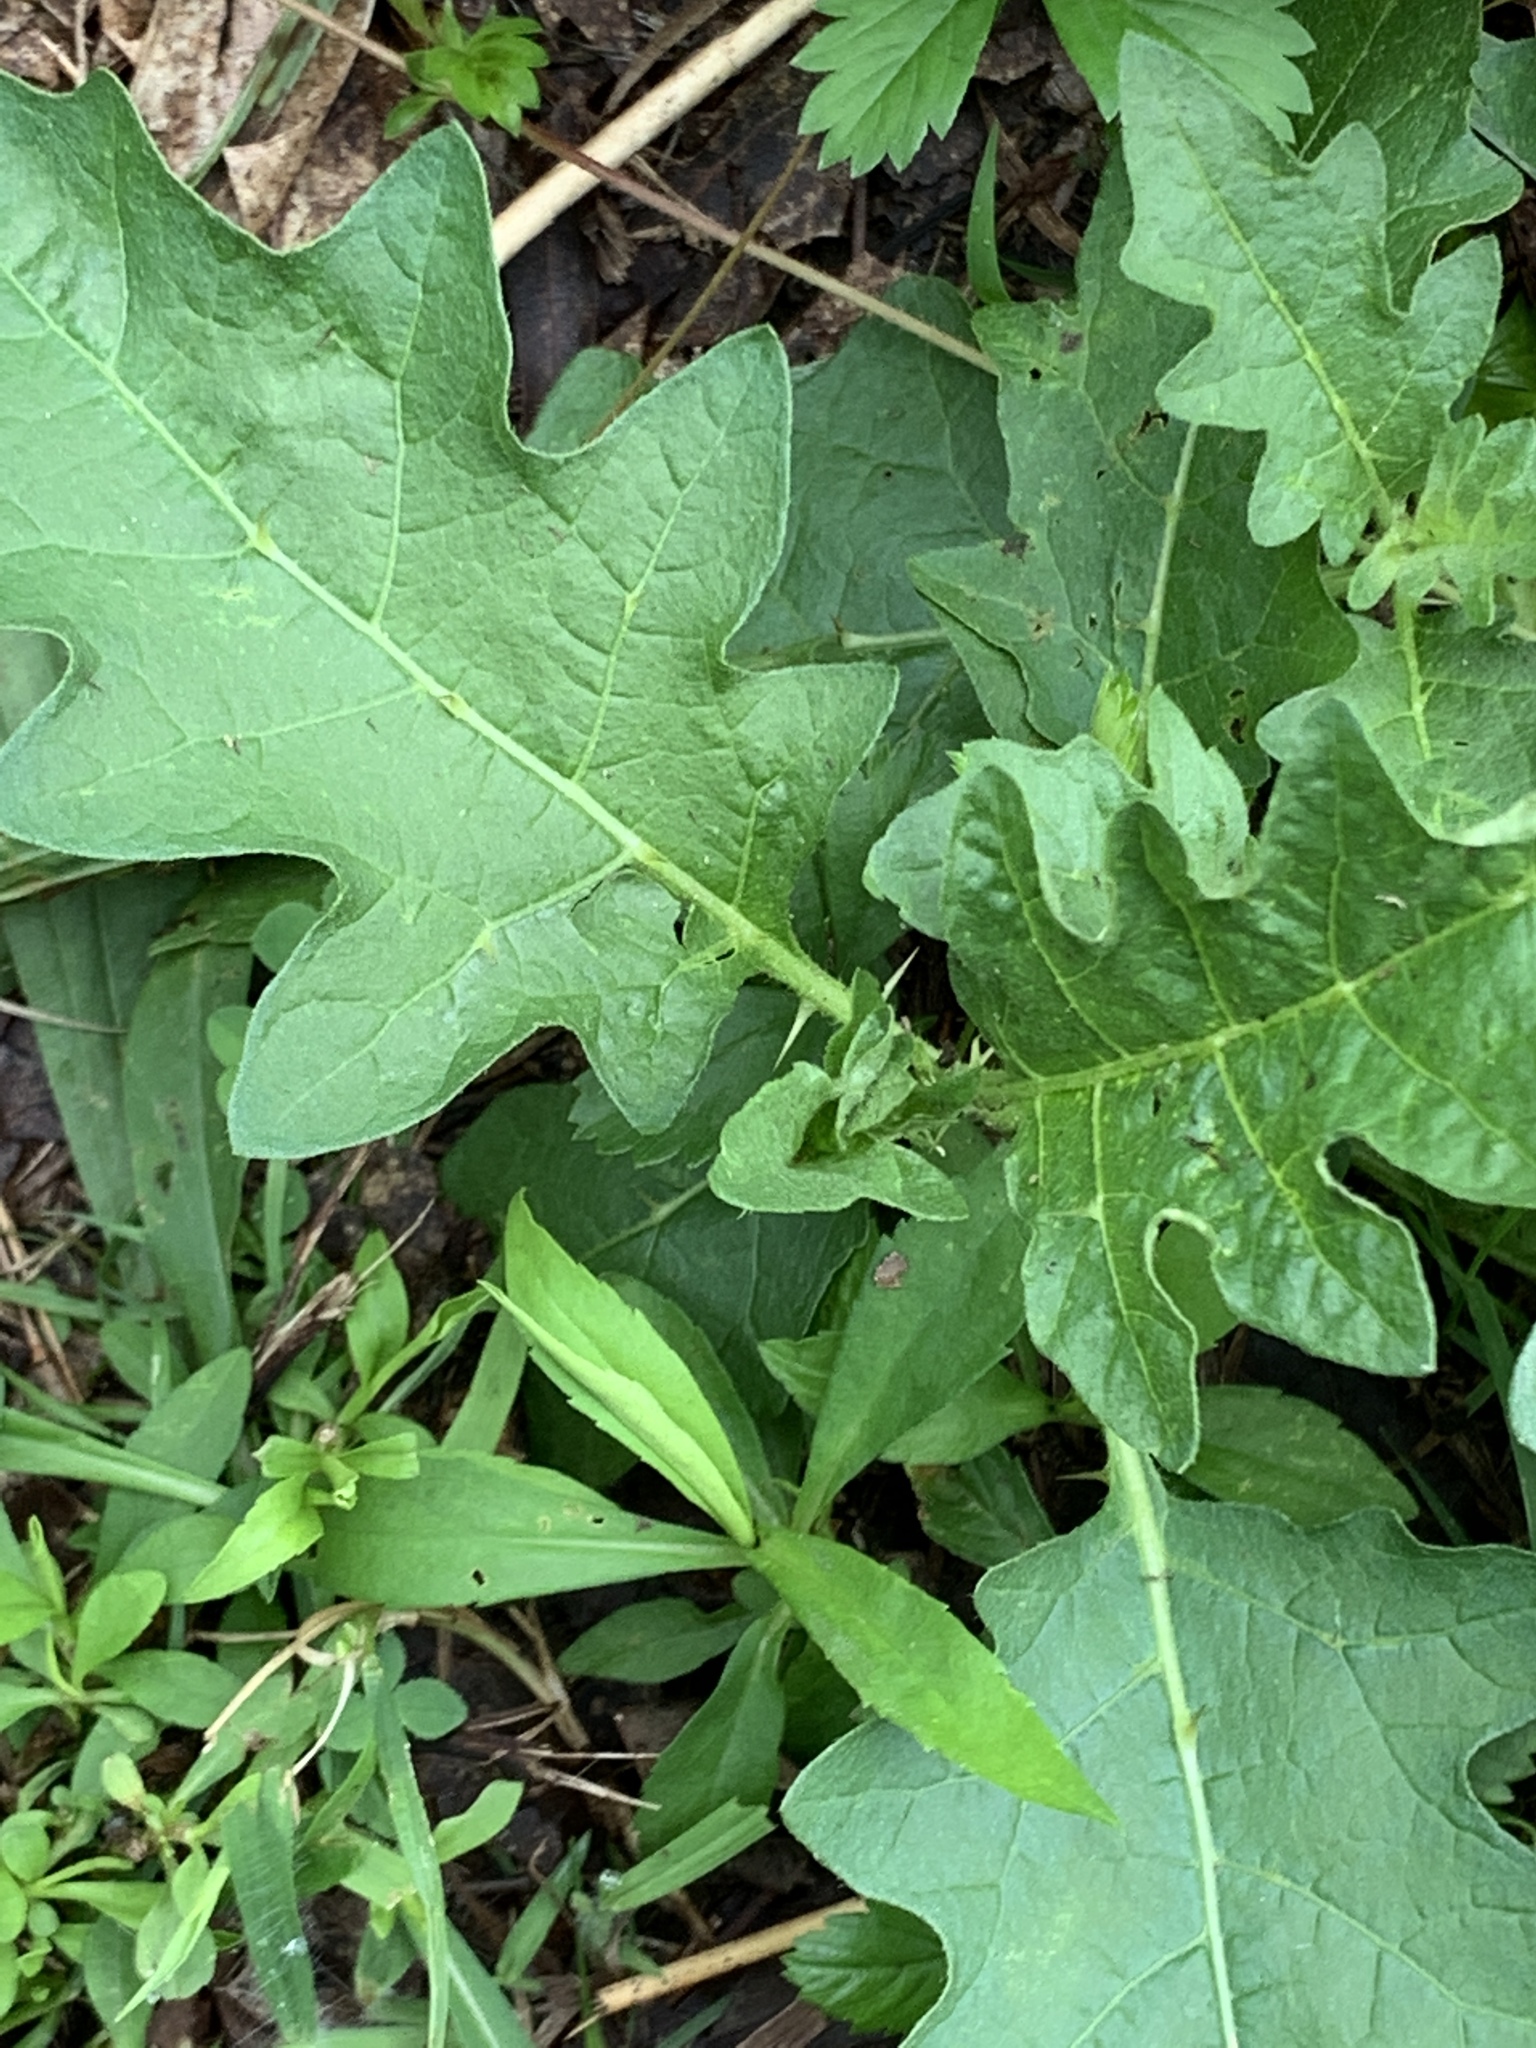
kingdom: Plantae
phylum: Tracheophyta
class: Magnoliopsida
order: Solanales
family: Solanaceae
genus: Solanum
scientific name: Solanum carolinense
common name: Horse-nettle
